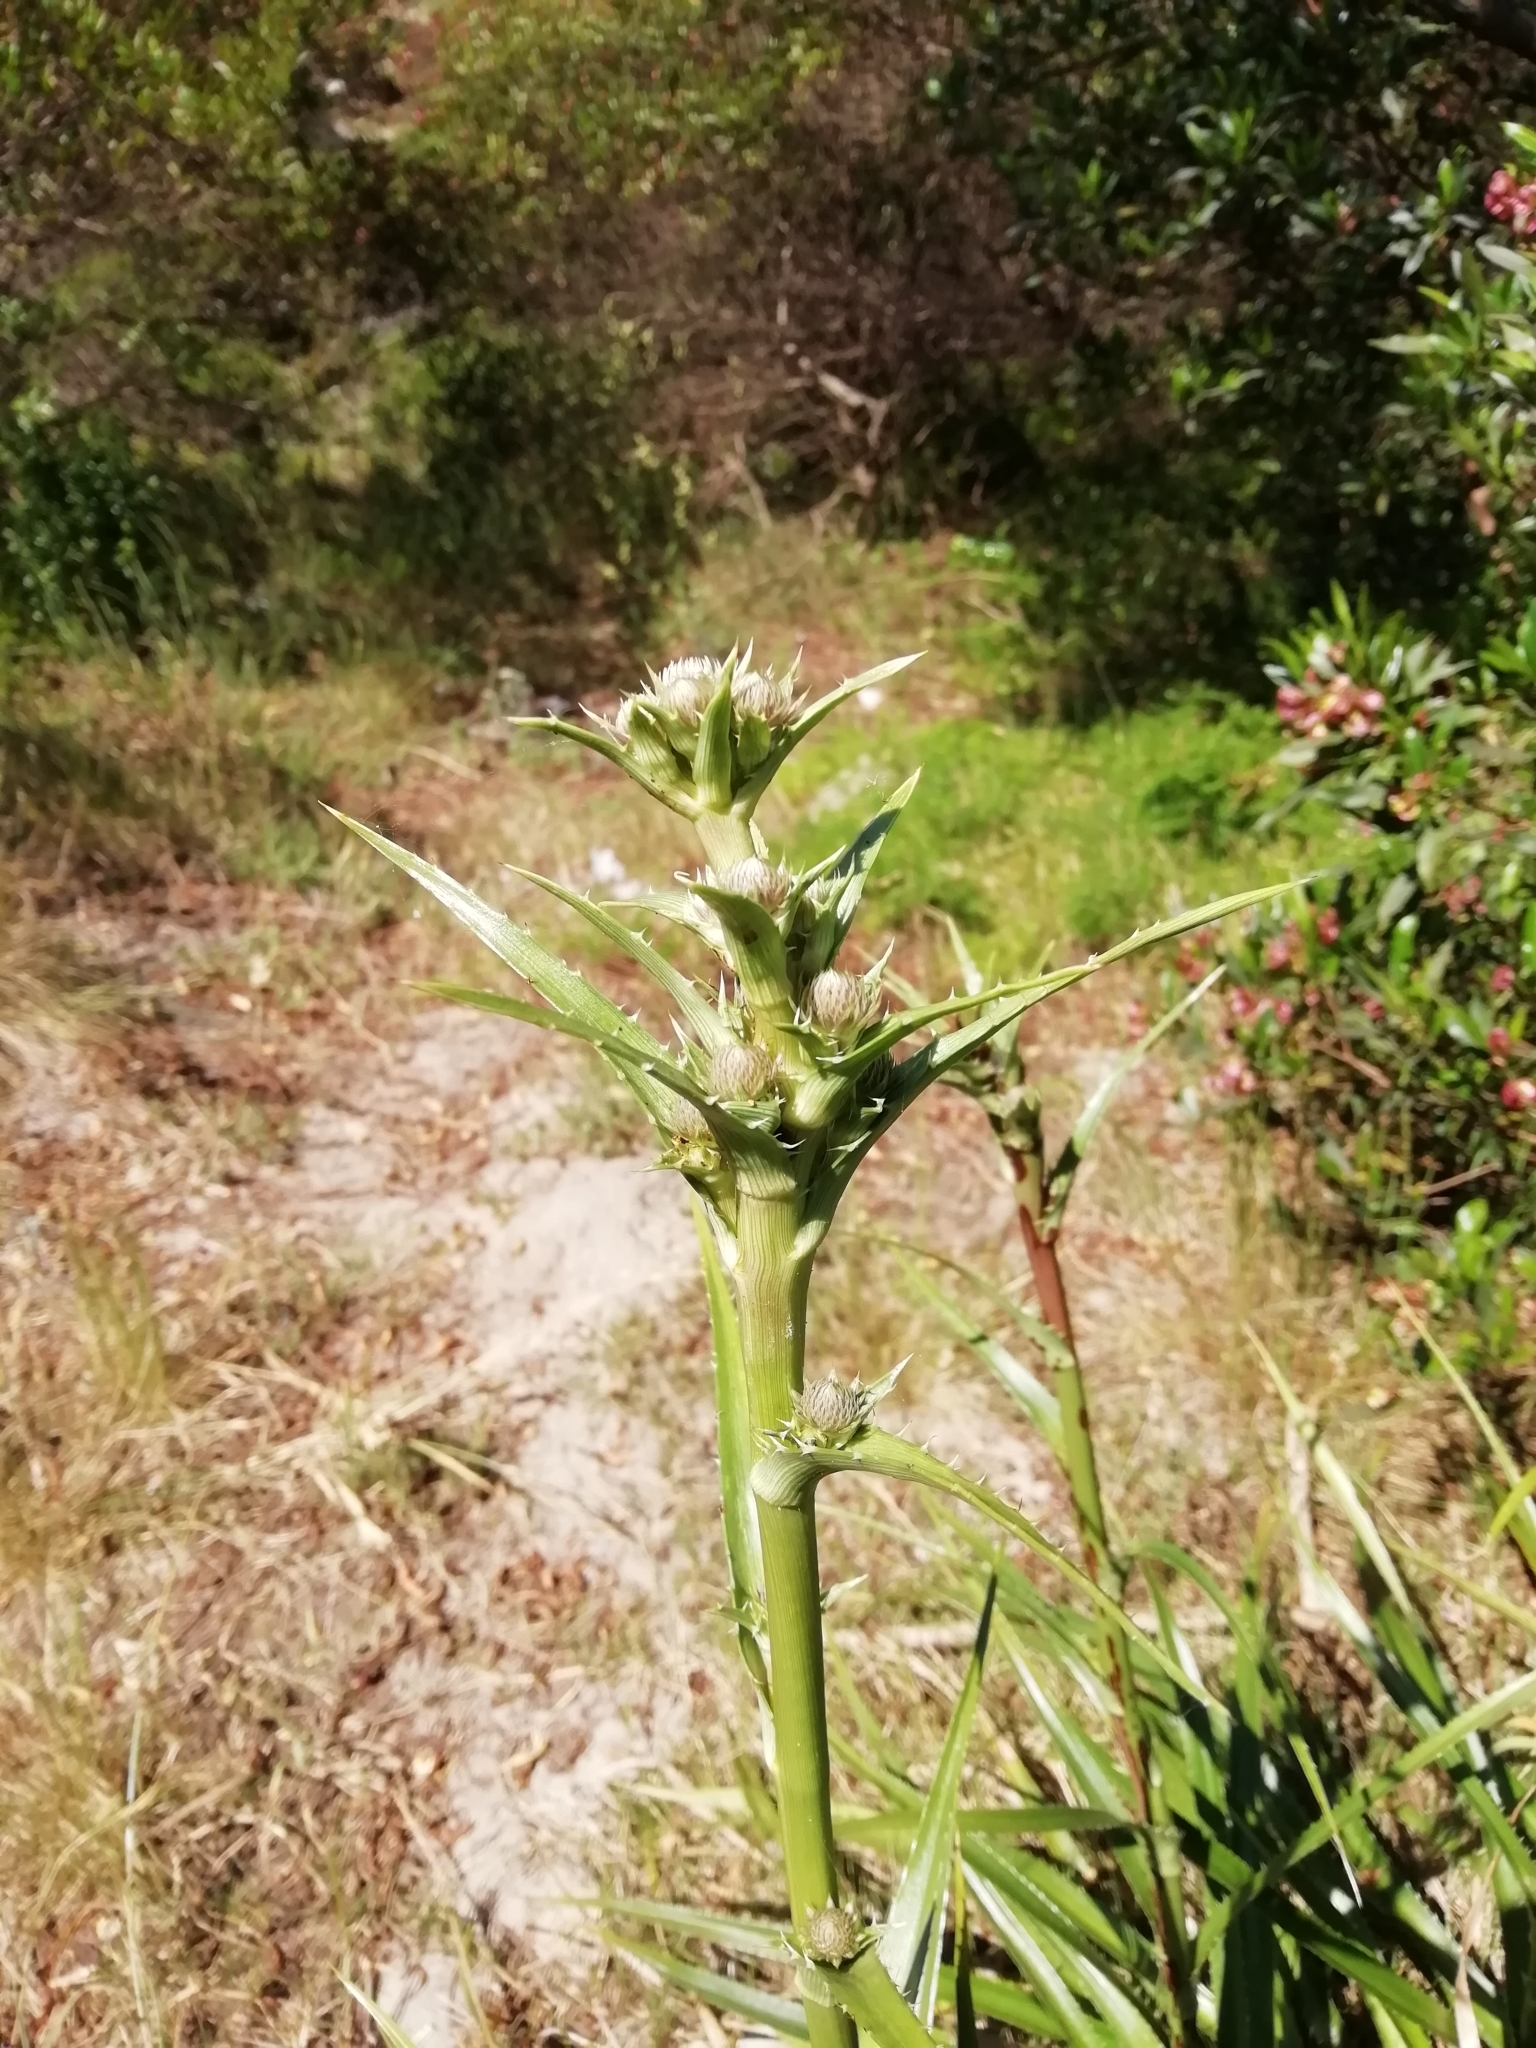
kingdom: Plantae
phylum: Tracheophyta
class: Magnoliopsida
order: Apiales
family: Apiaceae
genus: Eryngium
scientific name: Eryngium humboldtii
